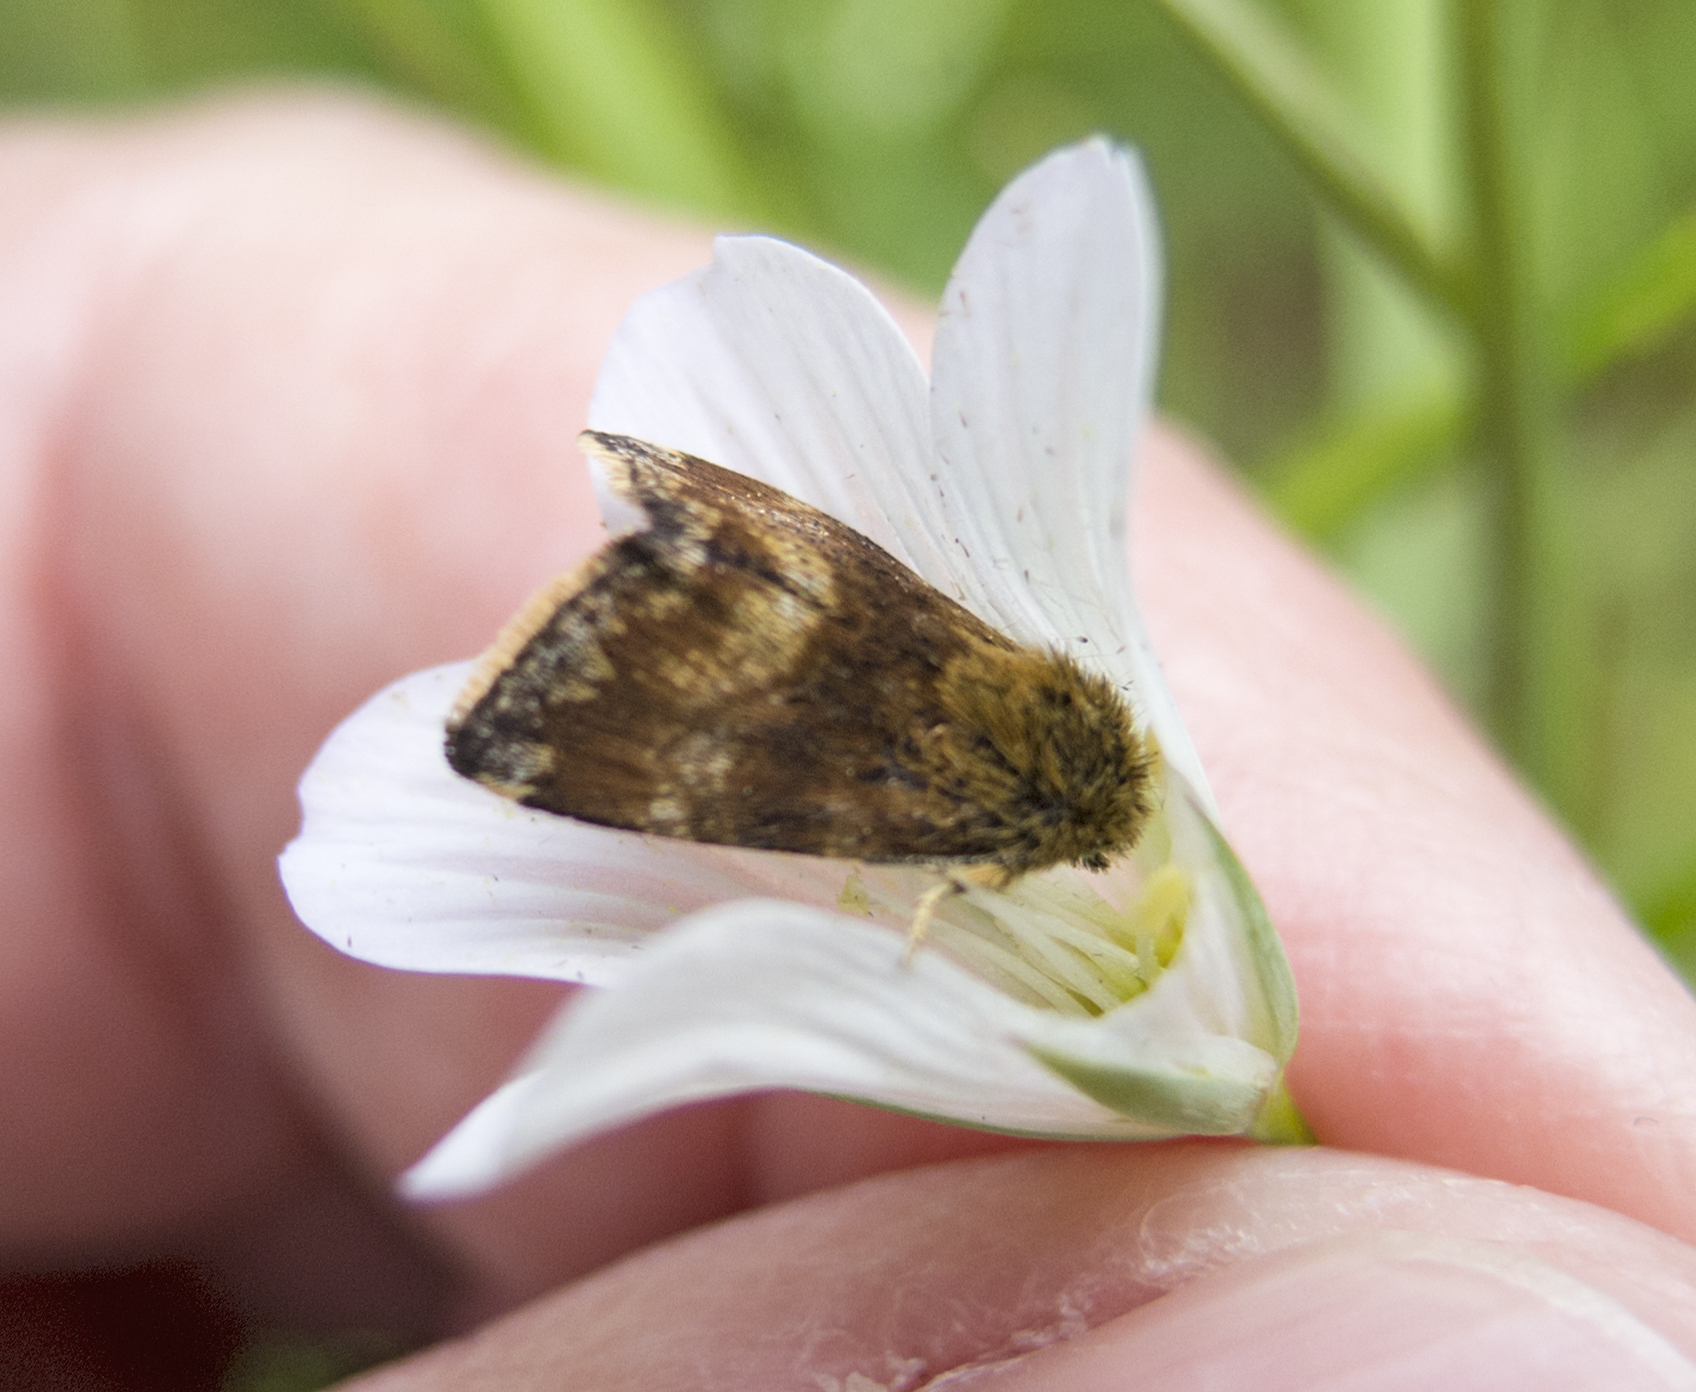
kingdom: Animalia
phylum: Arthropoda
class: Insecta
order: Lepidoptera
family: Noctuidae
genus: Panemeria
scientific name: Panemeria tenebrata
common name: Small yellow underwing
